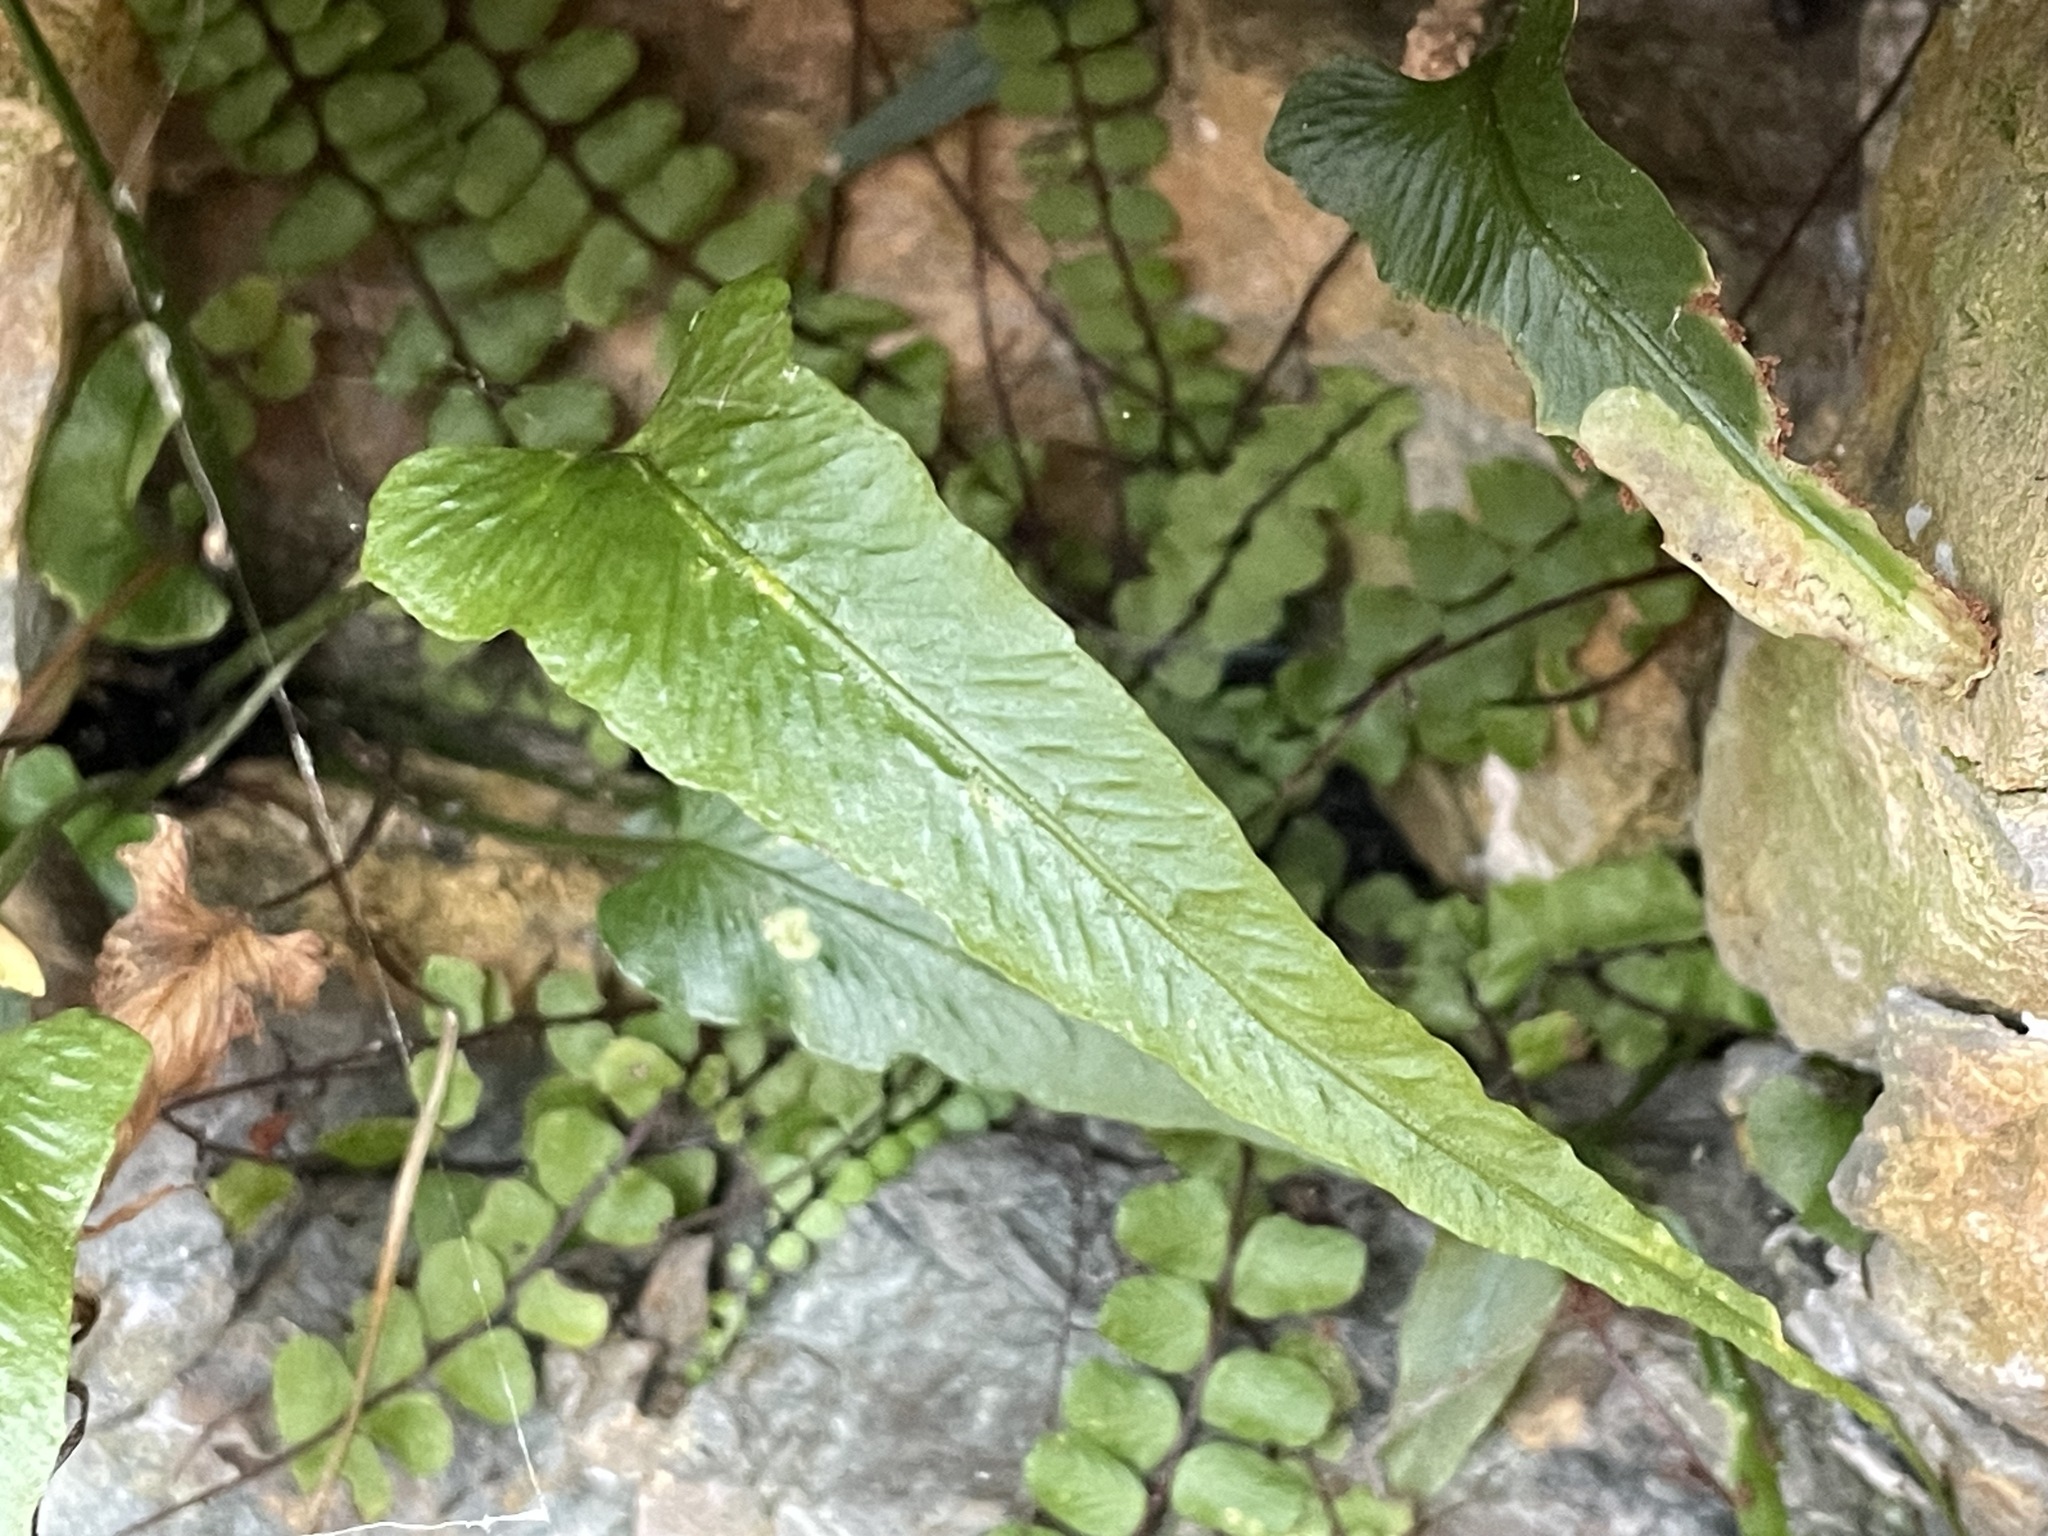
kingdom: Plantae
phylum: Tracheophyta
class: Polypodiopsida
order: Polypodiales
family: Aspleniaceae
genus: Asplenium
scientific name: Asplenium rhizophyllum
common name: Walking fern
